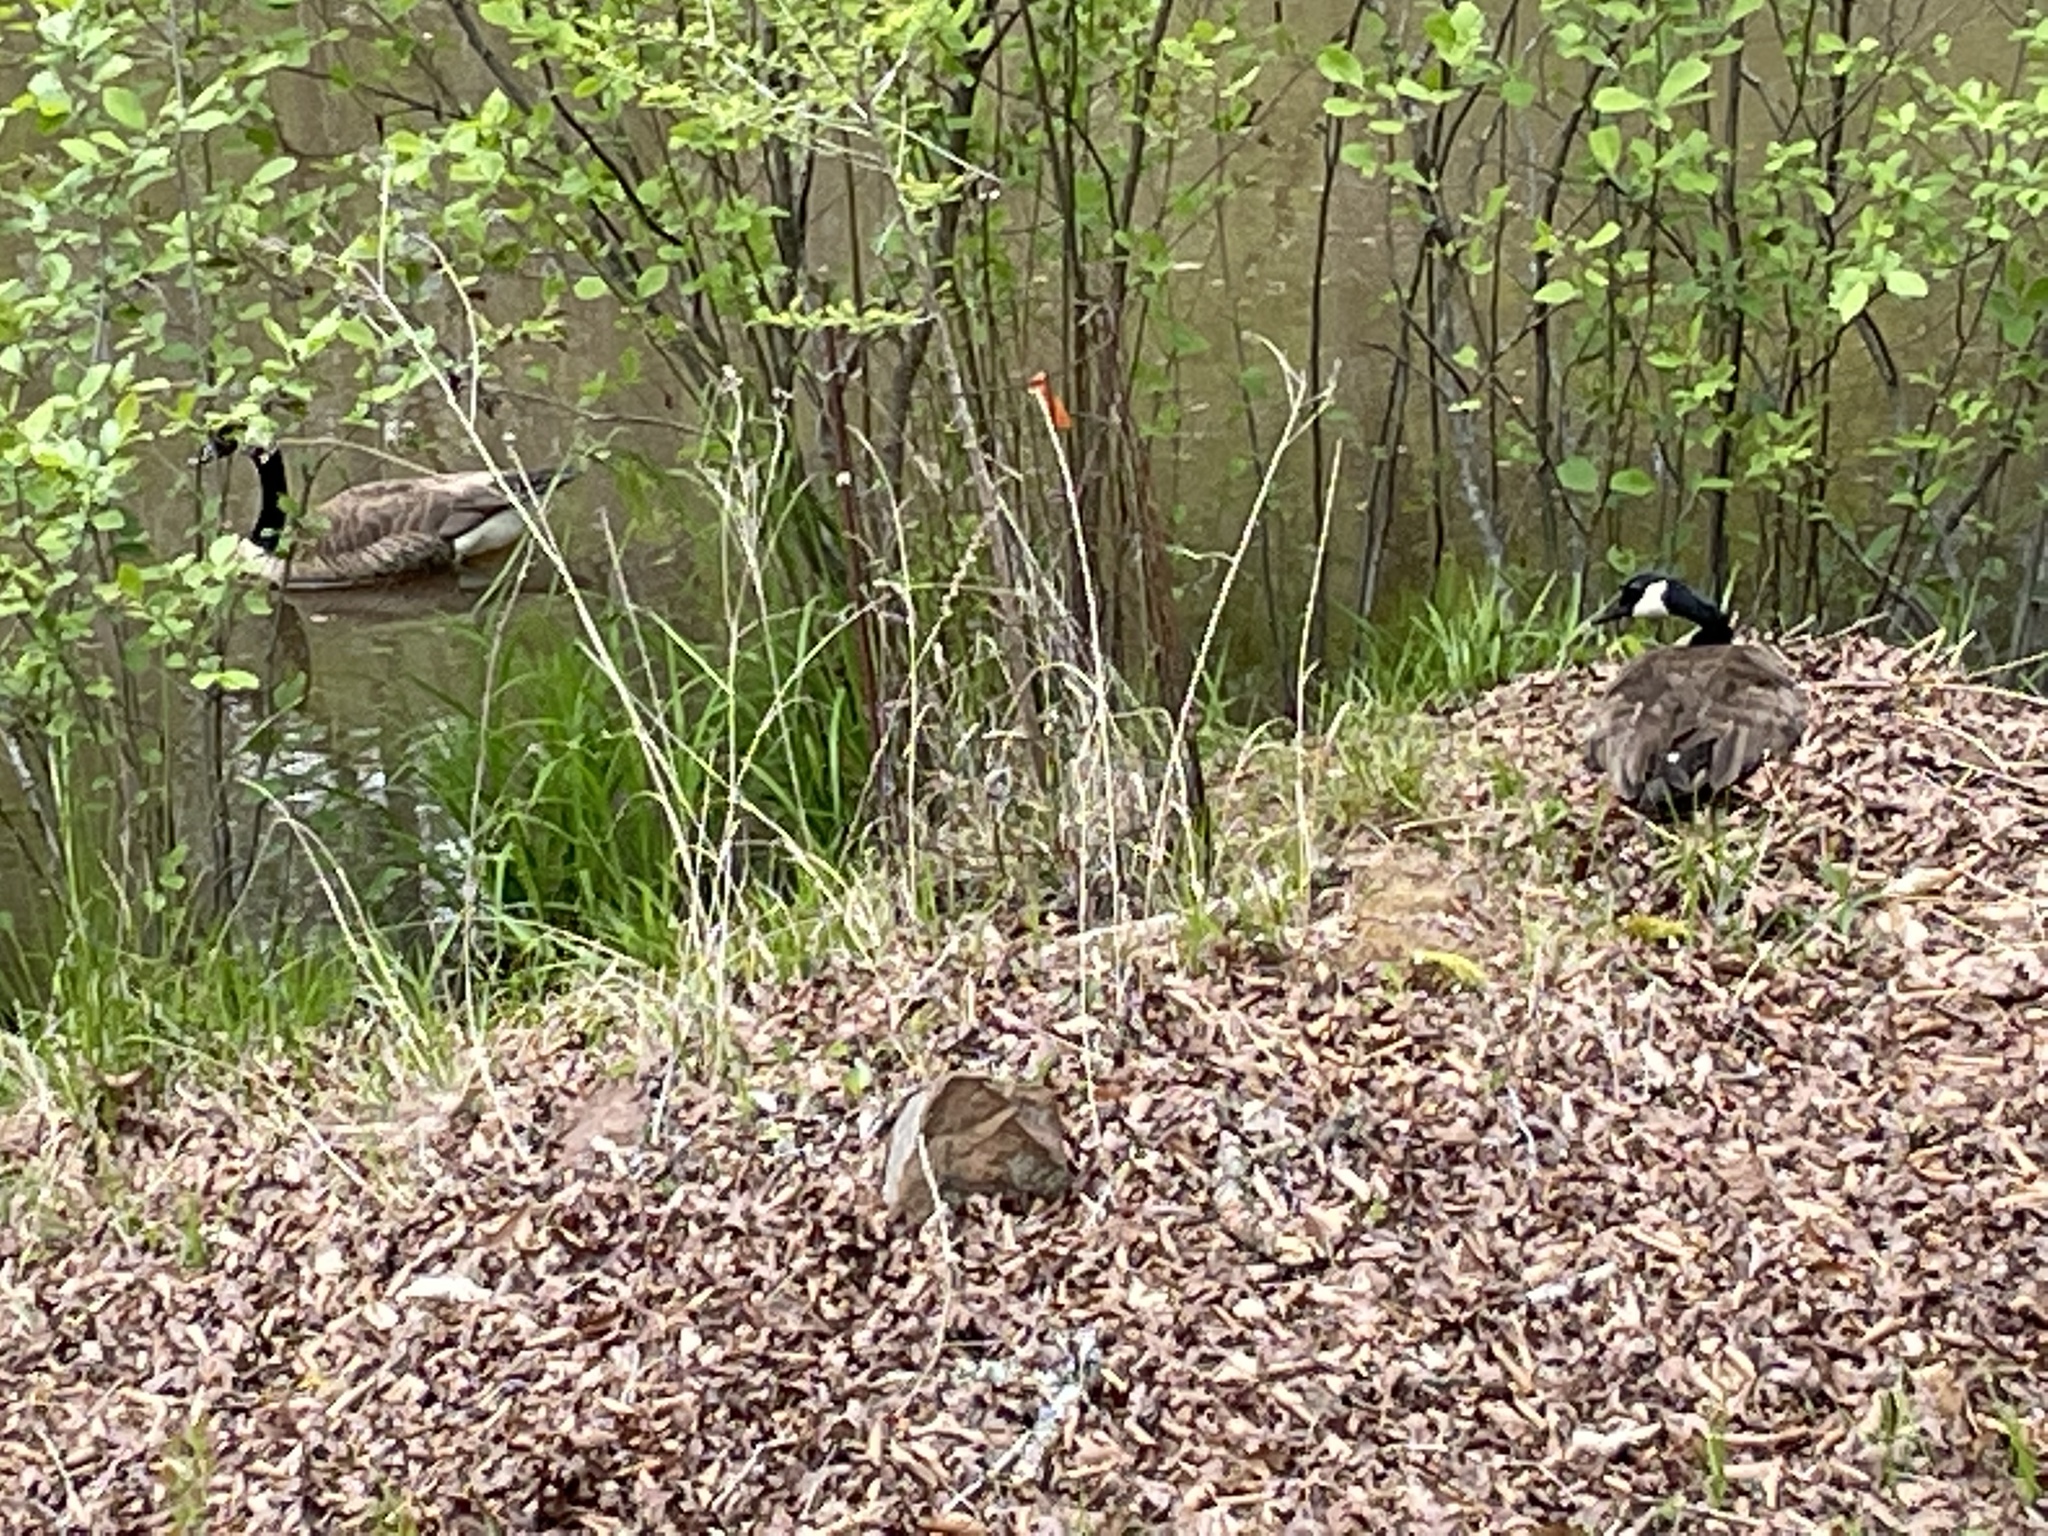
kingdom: Animalia
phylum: Chordata
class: Aves
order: Anseriformes
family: Anatidae
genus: Branta
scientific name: Branta canadensis
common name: Canada goose
